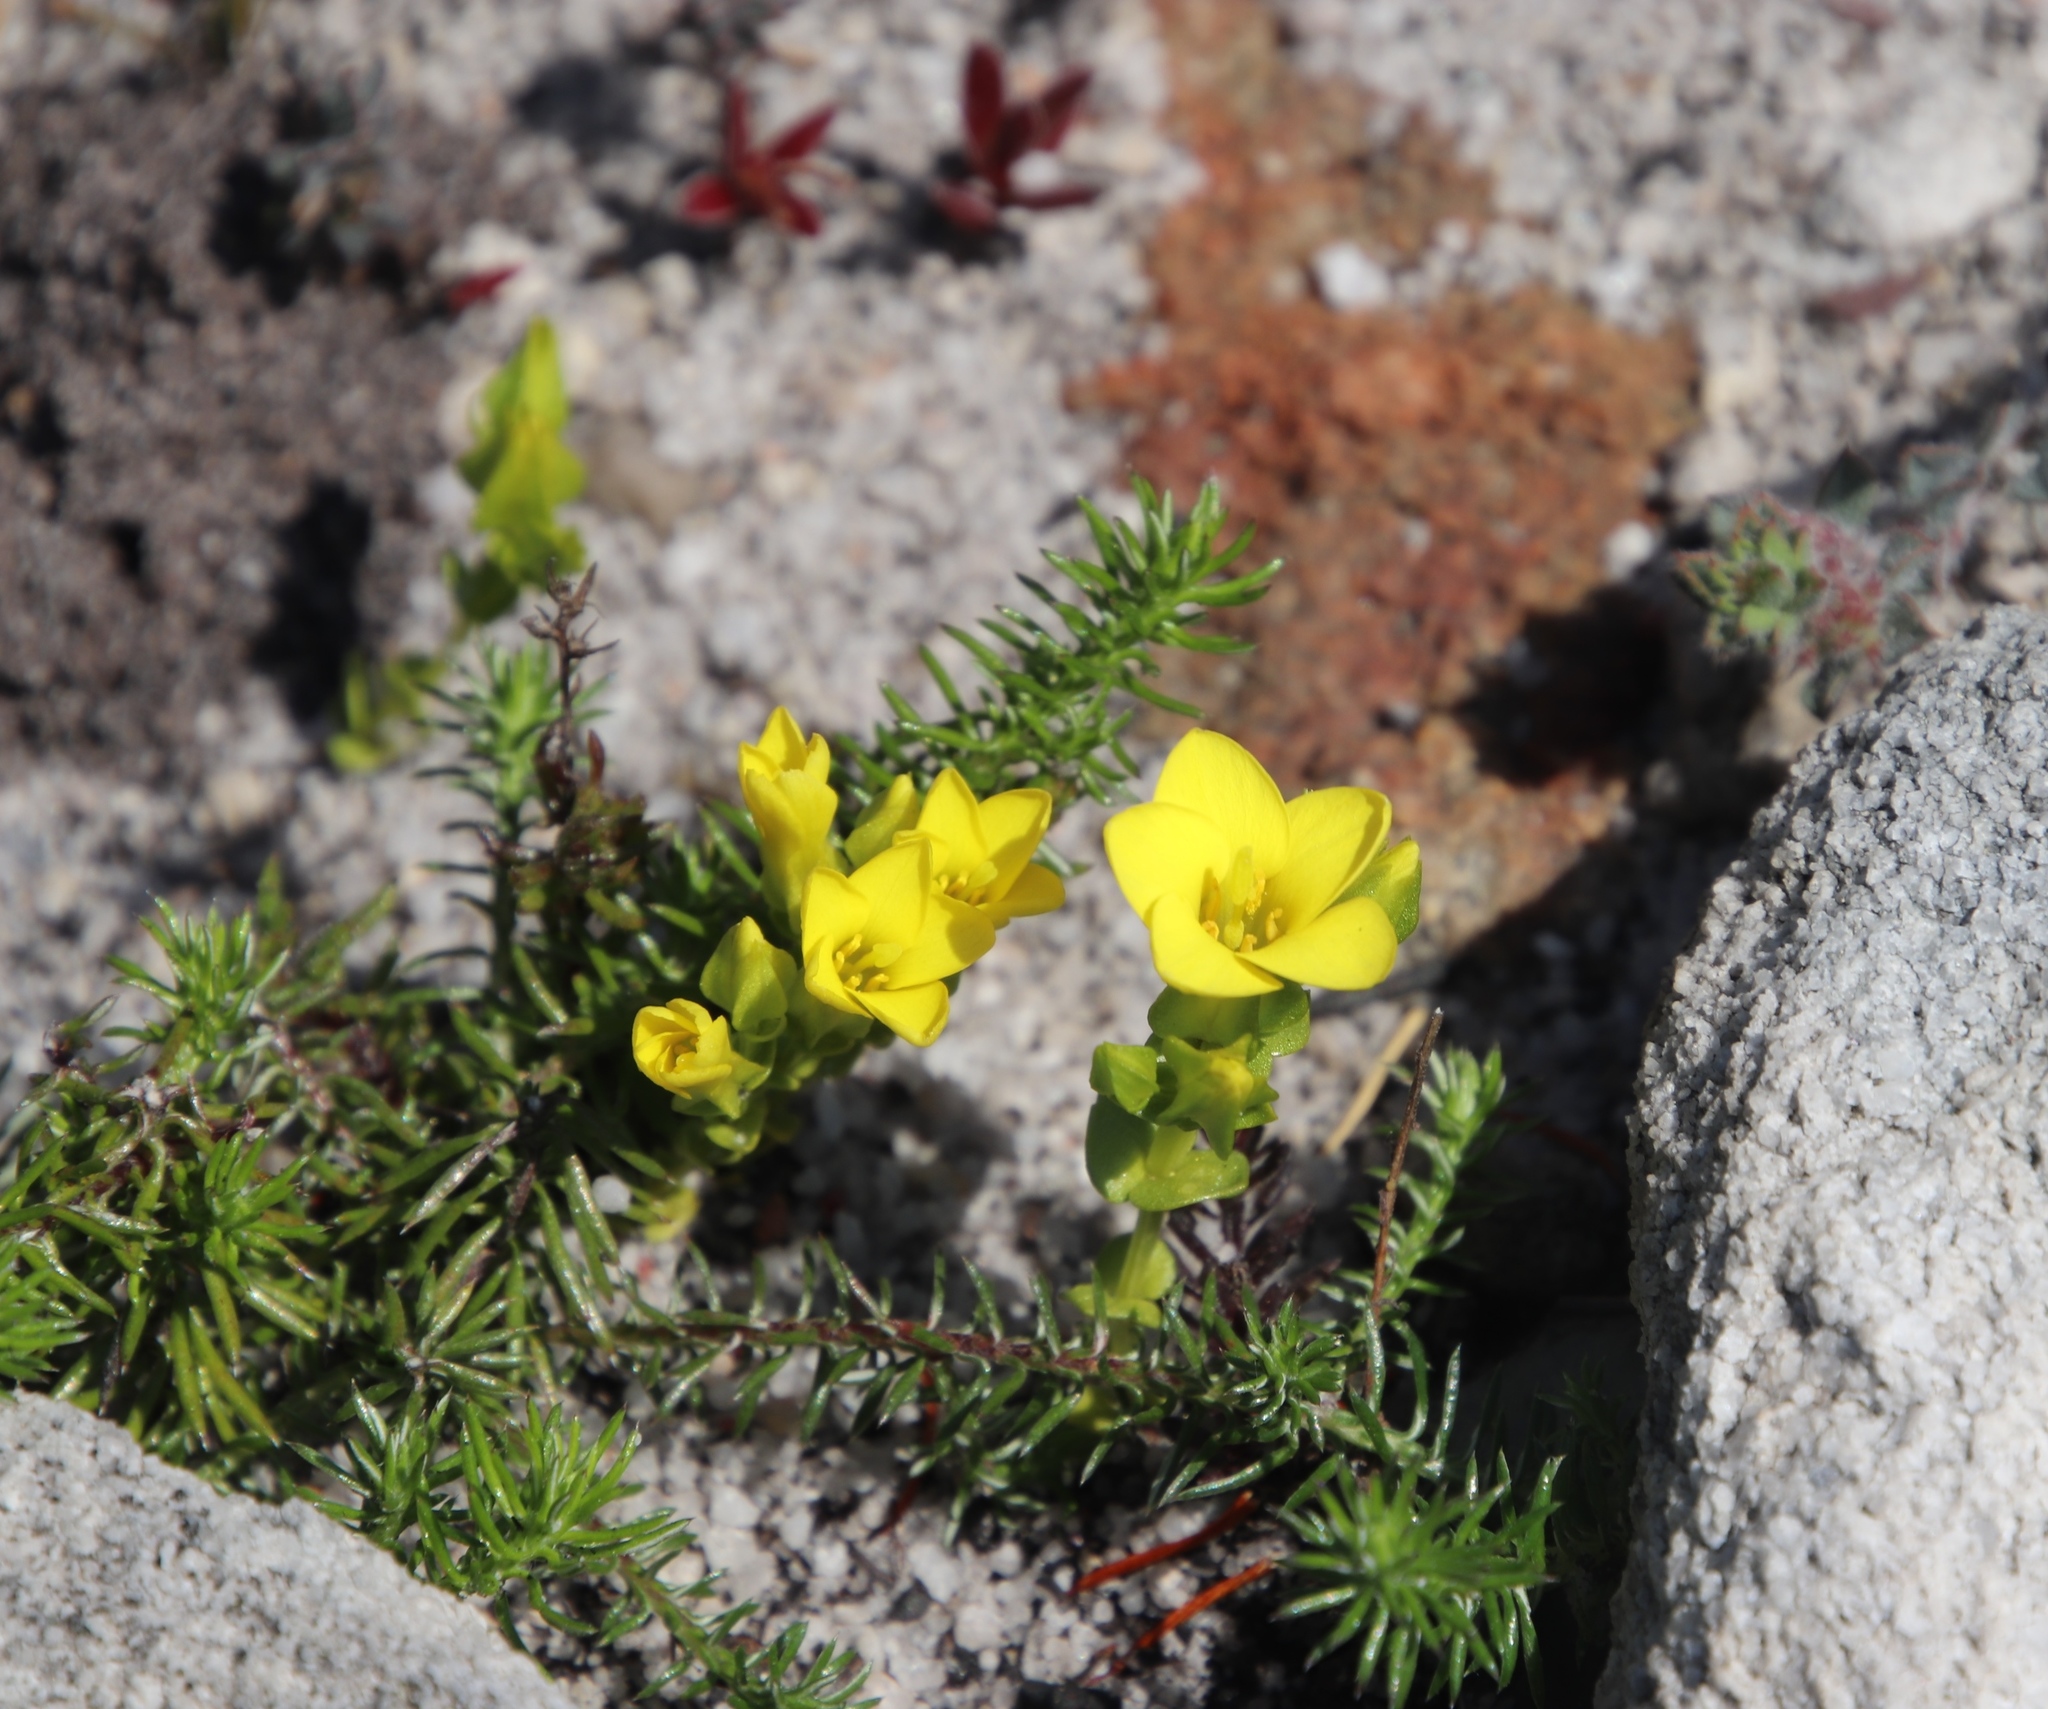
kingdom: Plantae
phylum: Tracheophyta
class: Magnoliopsida
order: Gentianales
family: Gentianaceae
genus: Sebaea
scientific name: Sebaea sulphurea
